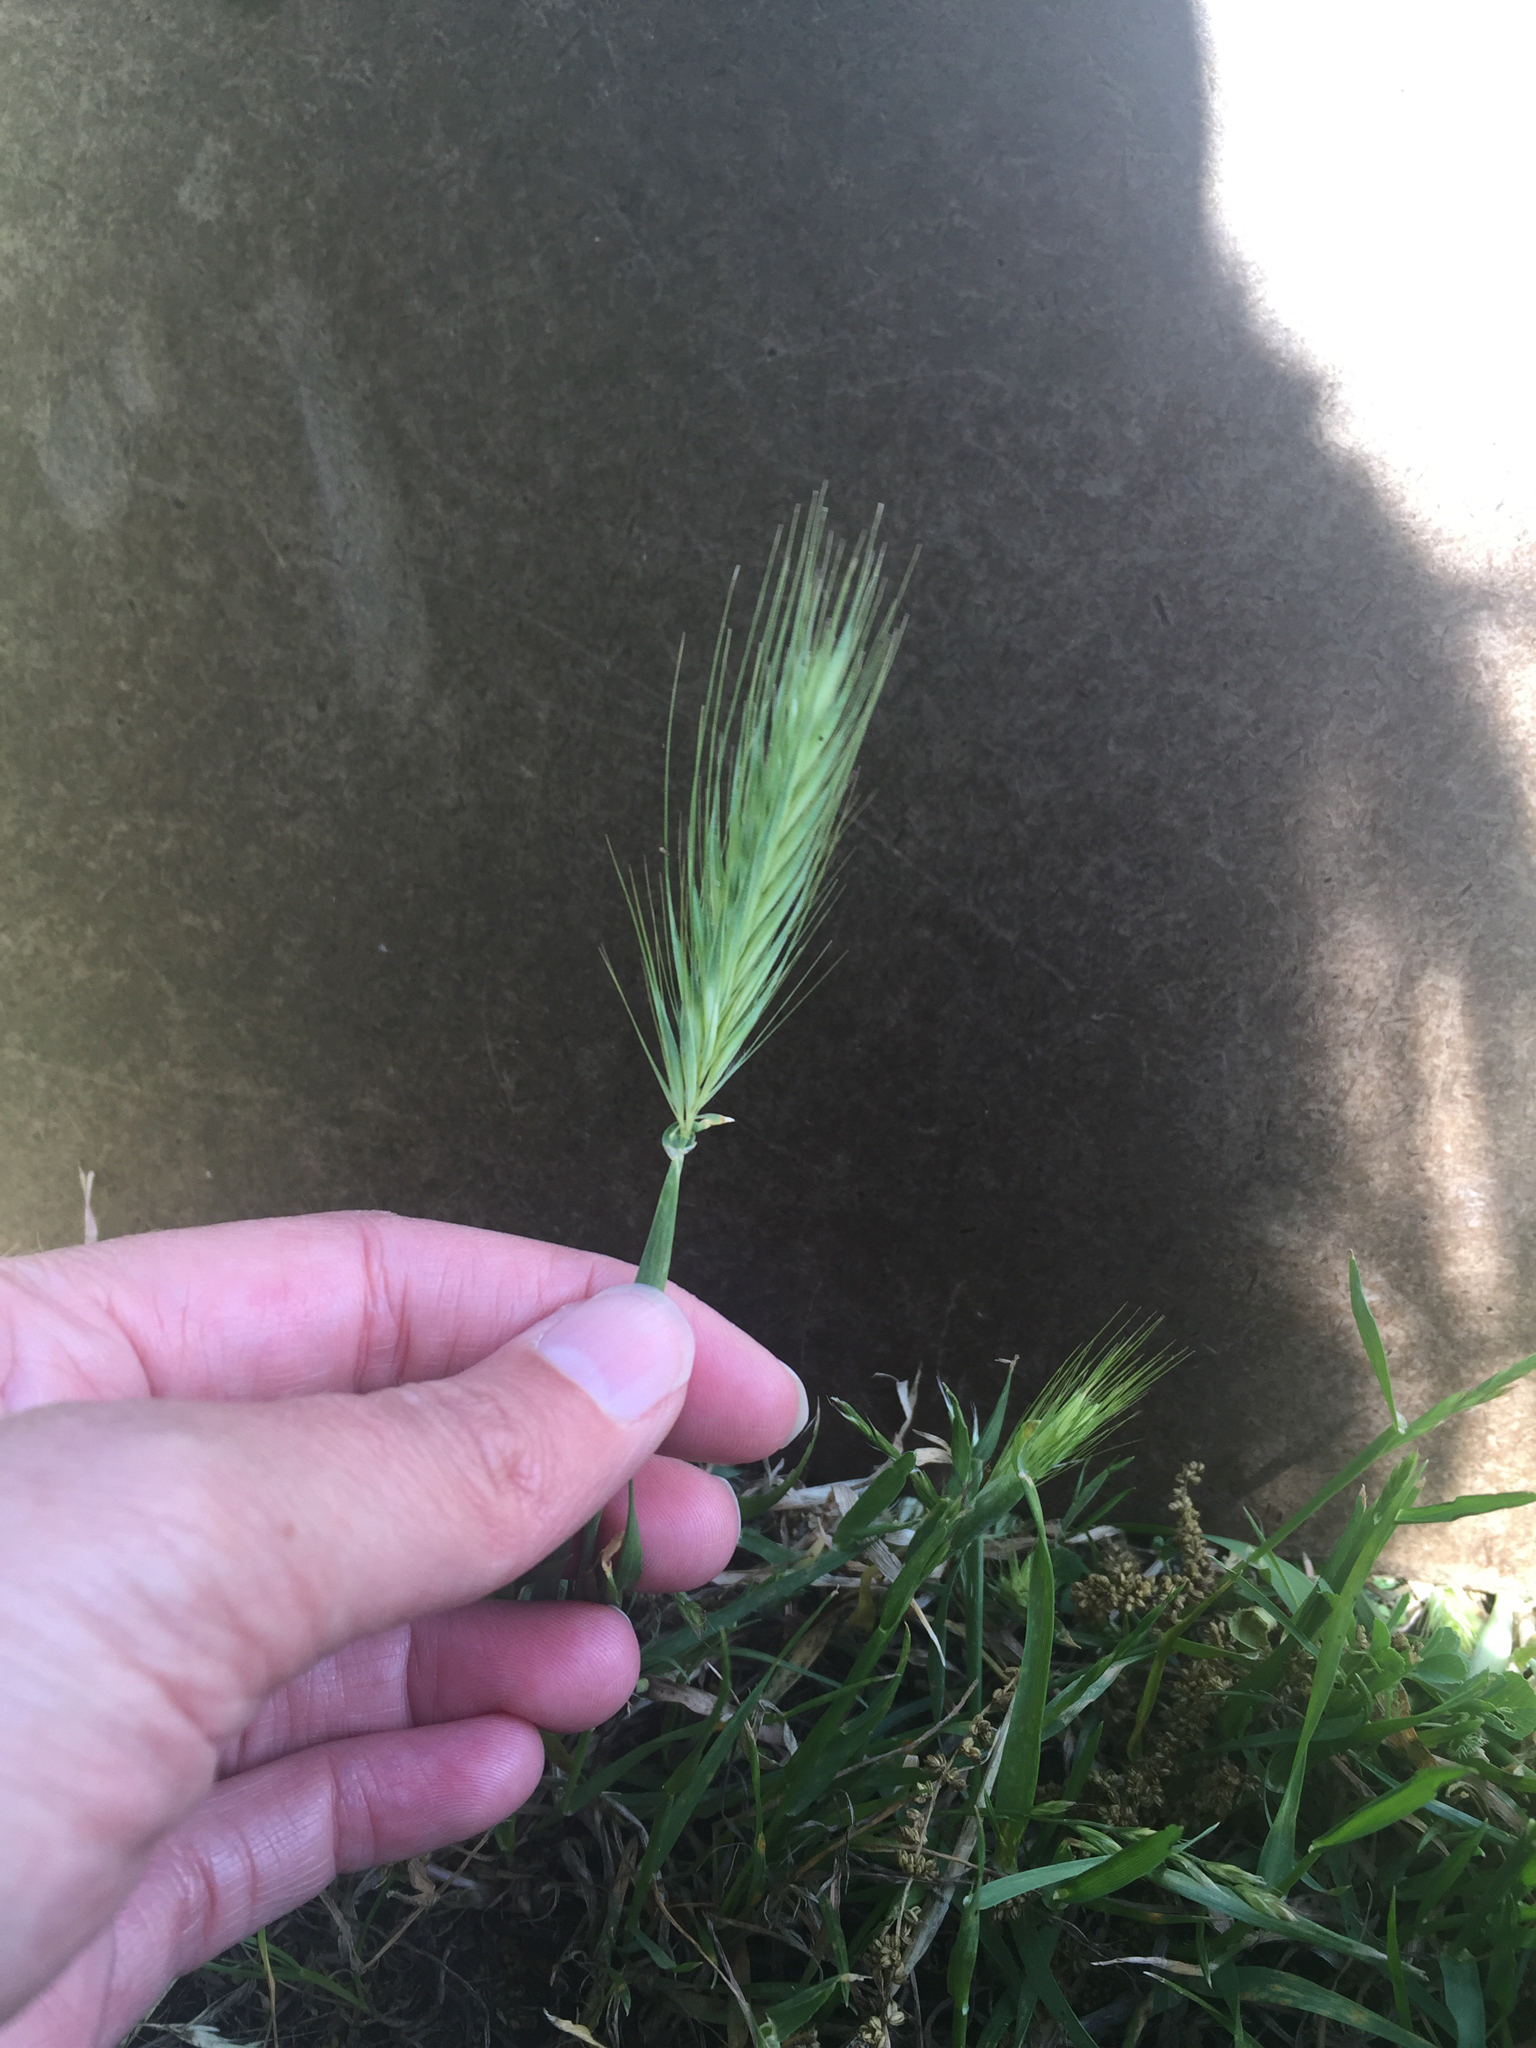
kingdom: Plantae
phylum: Tracheophyta
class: Liliopsida
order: Poales
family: Poaceae
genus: Hordeum
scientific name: Hordeum murinum
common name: Wall barley
